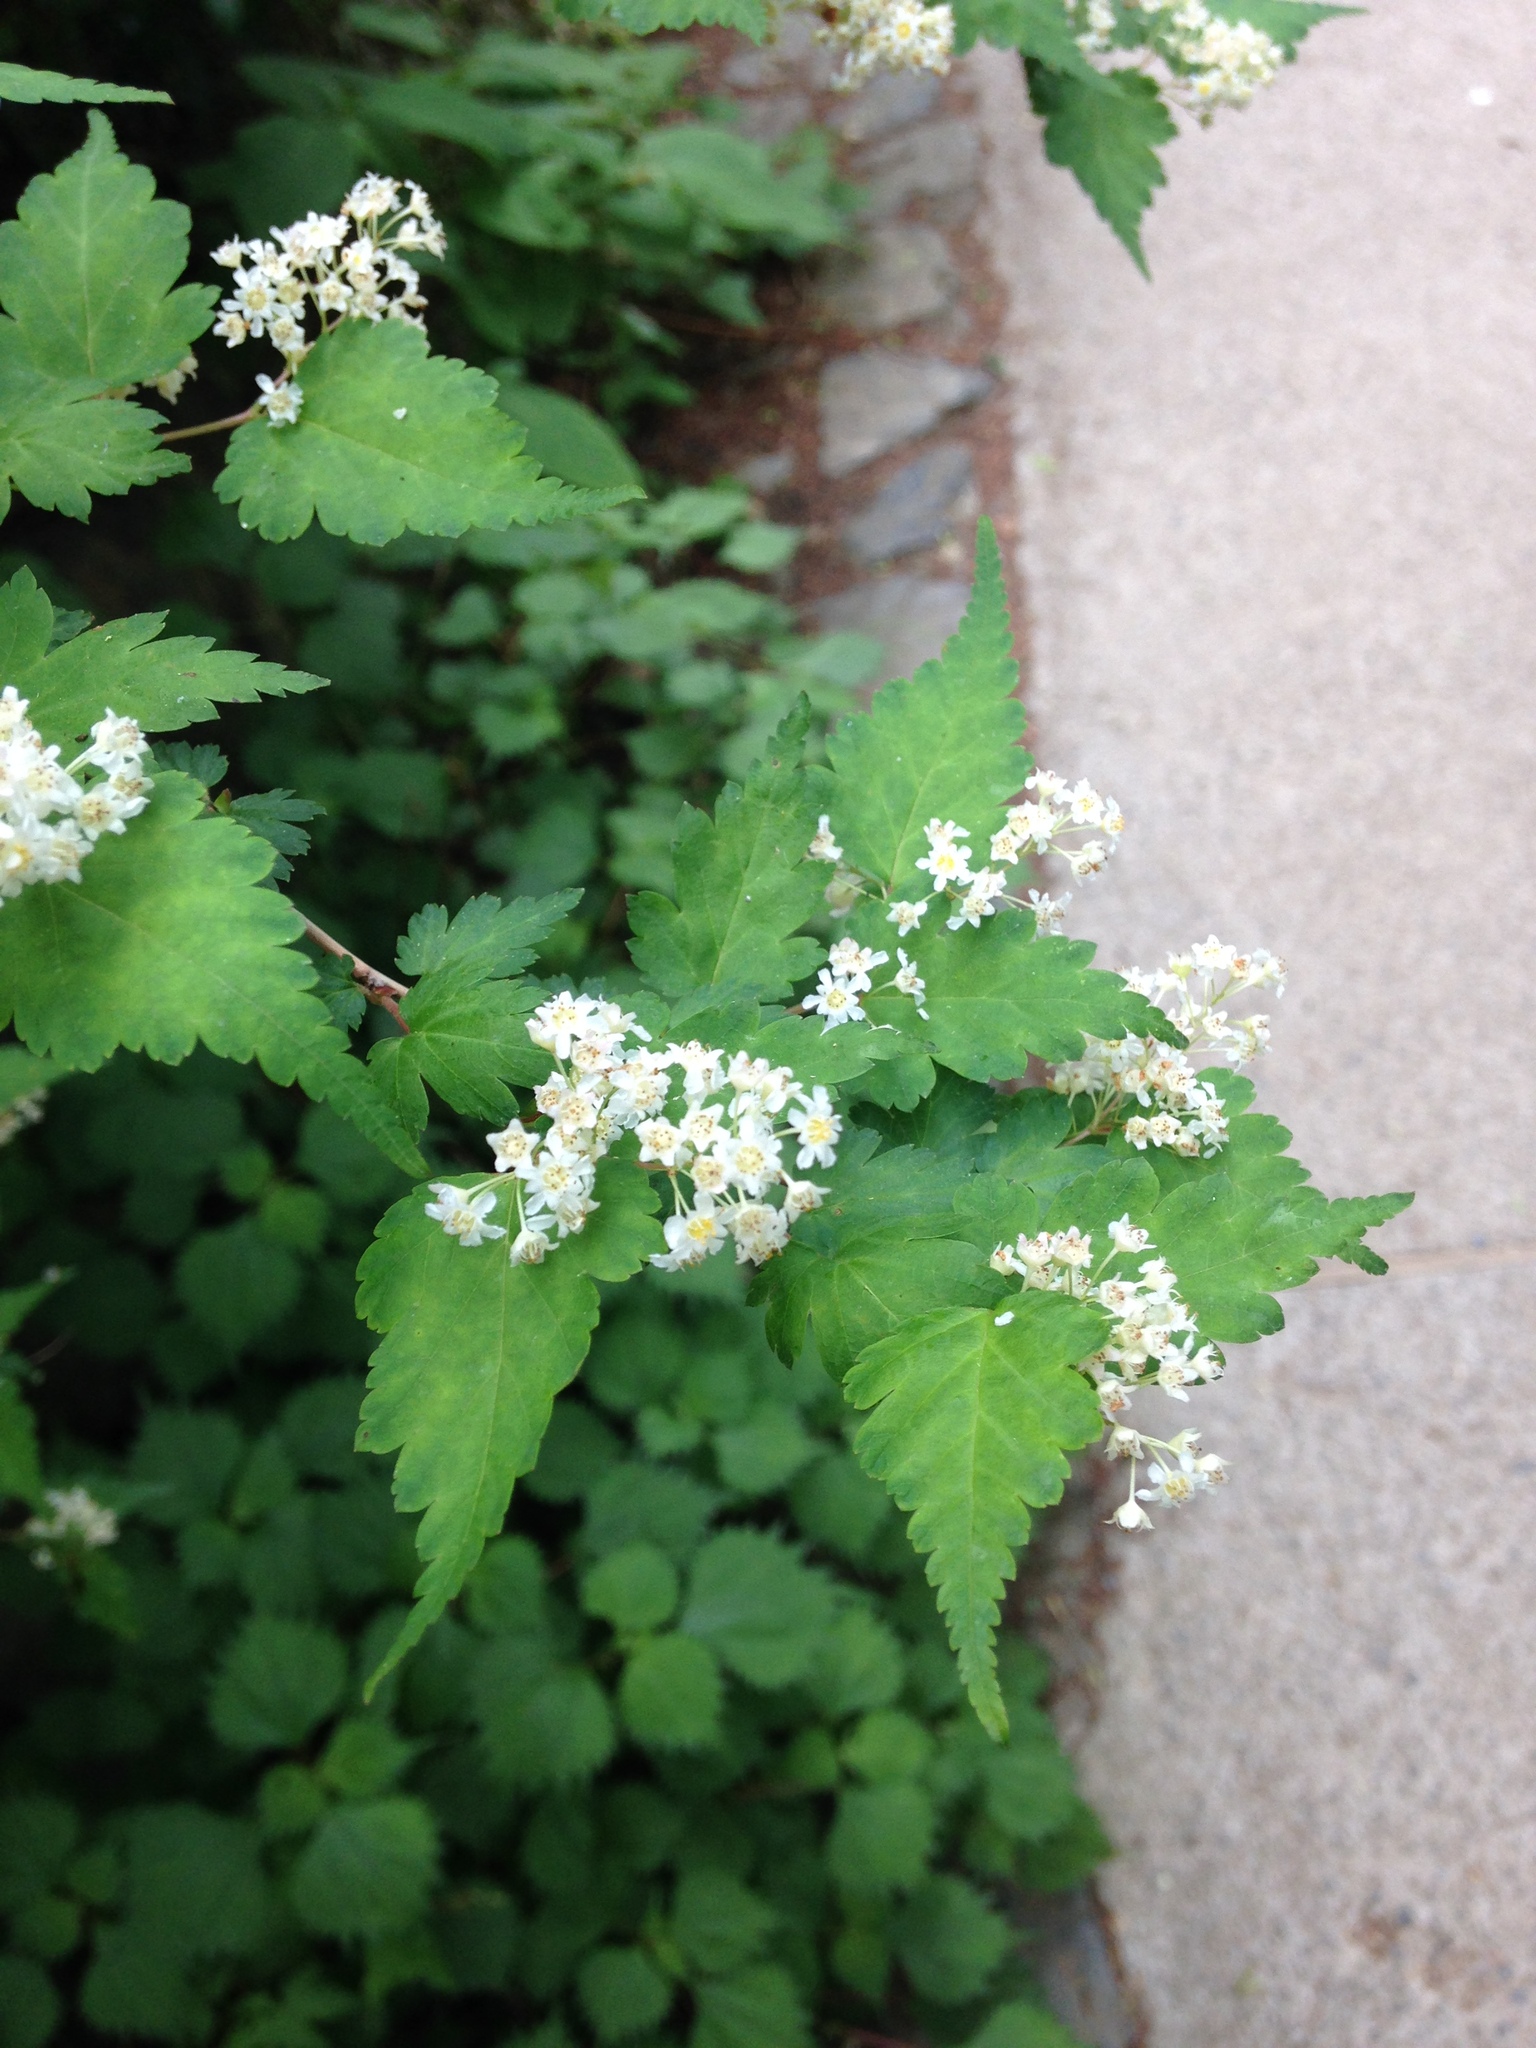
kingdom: Plantae
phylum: Tracheophyta
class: Magnoliopsida
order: Rosales
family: Rosaceae
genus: Neillia
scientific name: Neillia incisa
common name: Laceshrub
